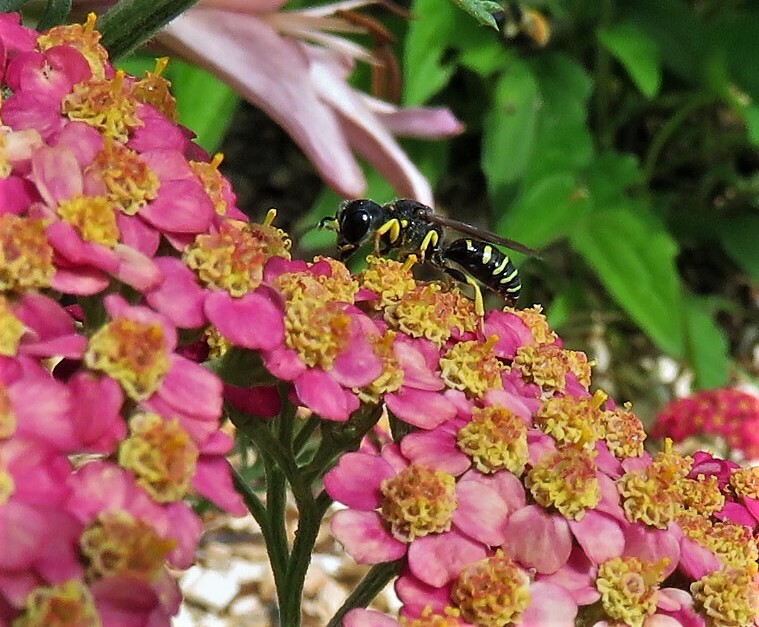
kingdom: Animalia
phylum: Arthropoda
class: Insecta
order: Hymenoptera
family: Crabronidae
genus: Ectemnius
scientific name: Ectemnius
